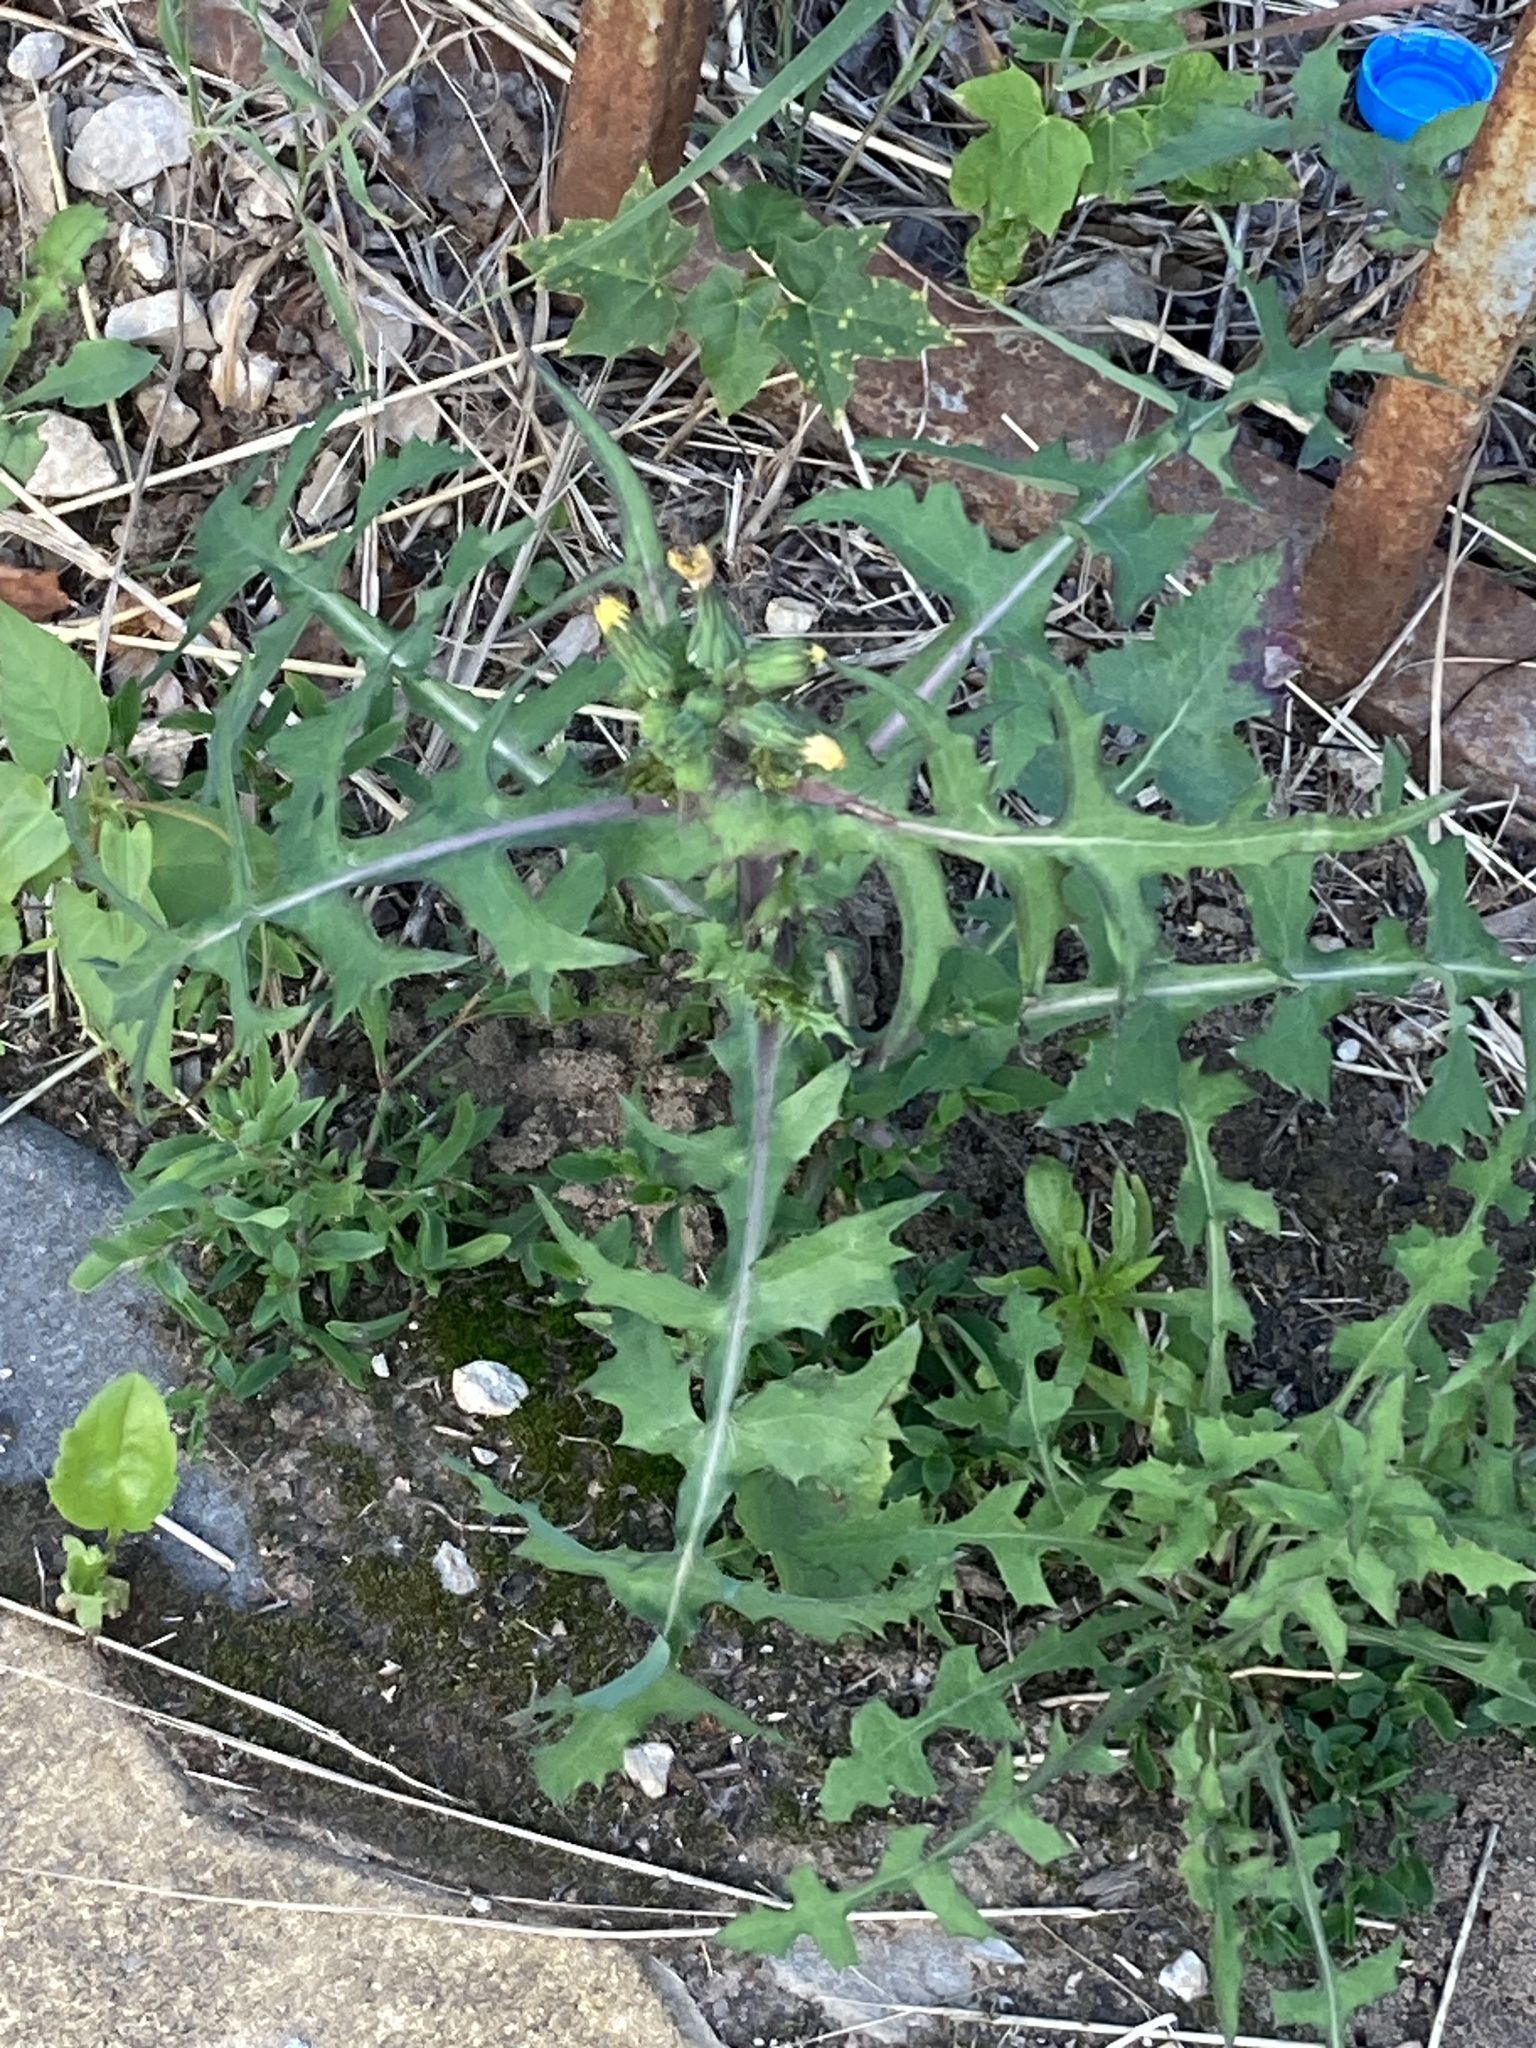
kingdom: Plantae
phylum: Tracheophyta
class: Magnoliopsida
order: Asterales
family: Asteraceae
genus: Sonchus
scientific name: Sonchus oleraceus
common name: Common sowthistle
